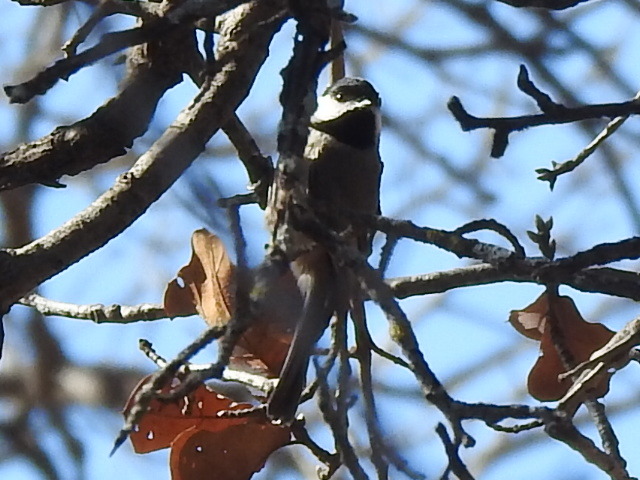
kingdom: Animalia
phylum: Chordata
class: Aves
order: Passeriformes
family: Paridae
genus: Poecile
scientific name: Poecile carolinensis
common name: Carolina chickadee
